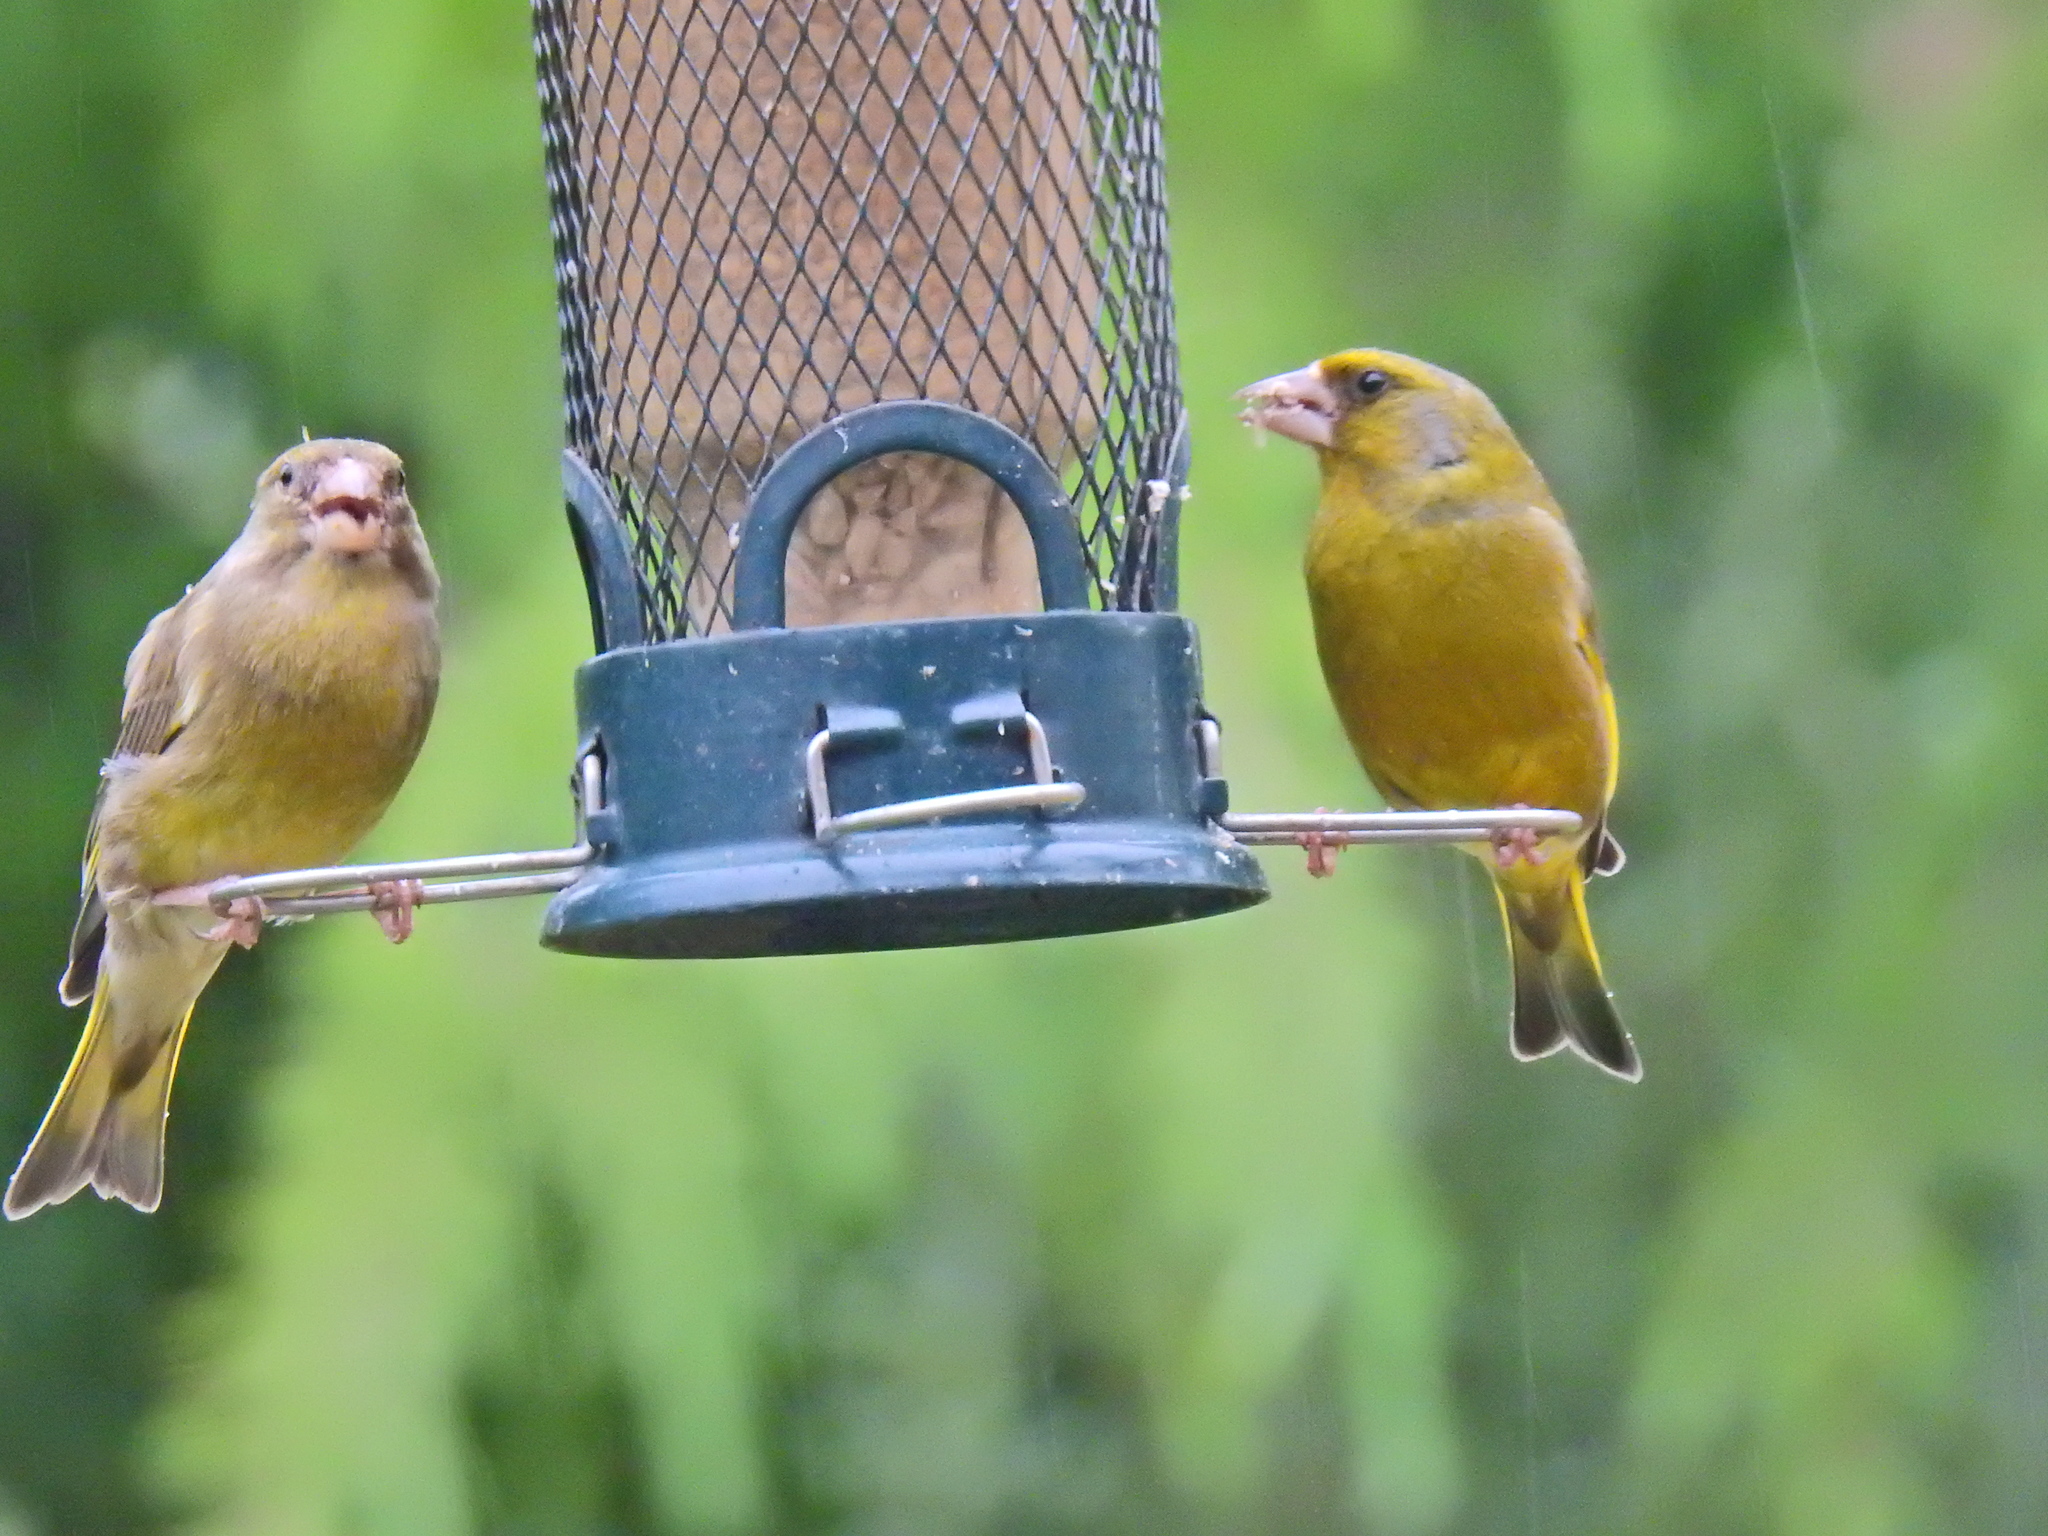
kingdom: Plantae
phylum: Tracheophyta
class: Liliopsida
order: Poales
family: Poaceae
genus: Chloris
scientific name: Chloris chloris
